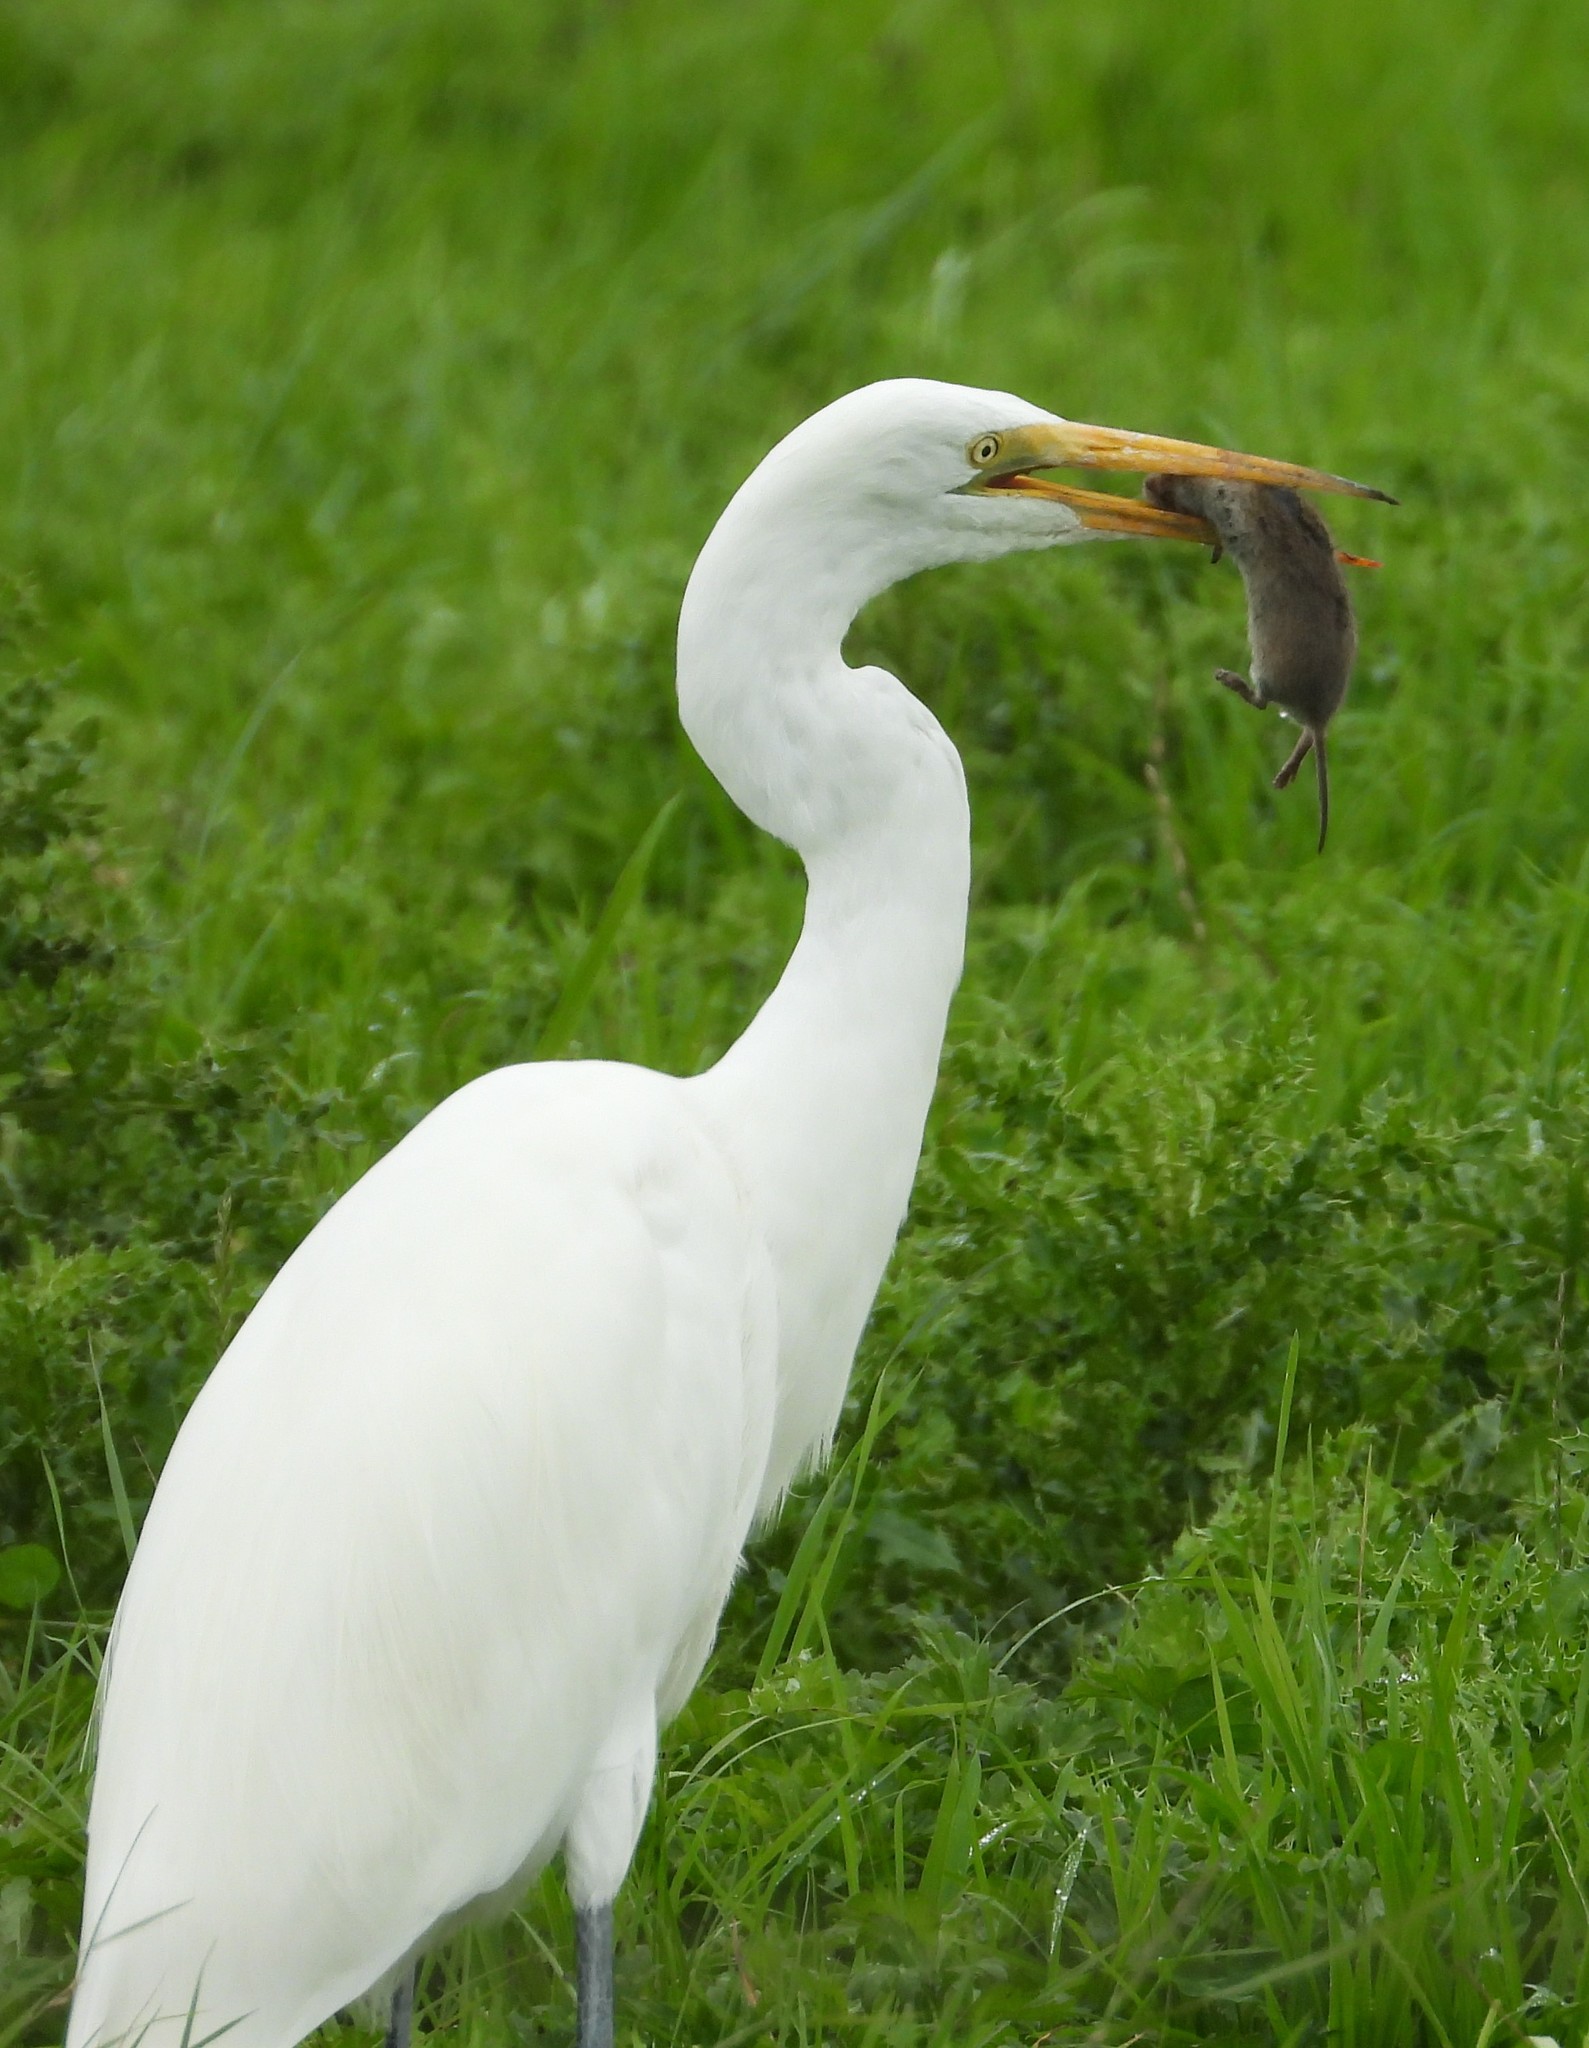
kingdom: Animalia
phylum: Chordata
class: Aves
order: Pelecaniformes
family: Ardeidae
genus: Ardea
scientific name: Ardea alba
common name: Great egret
